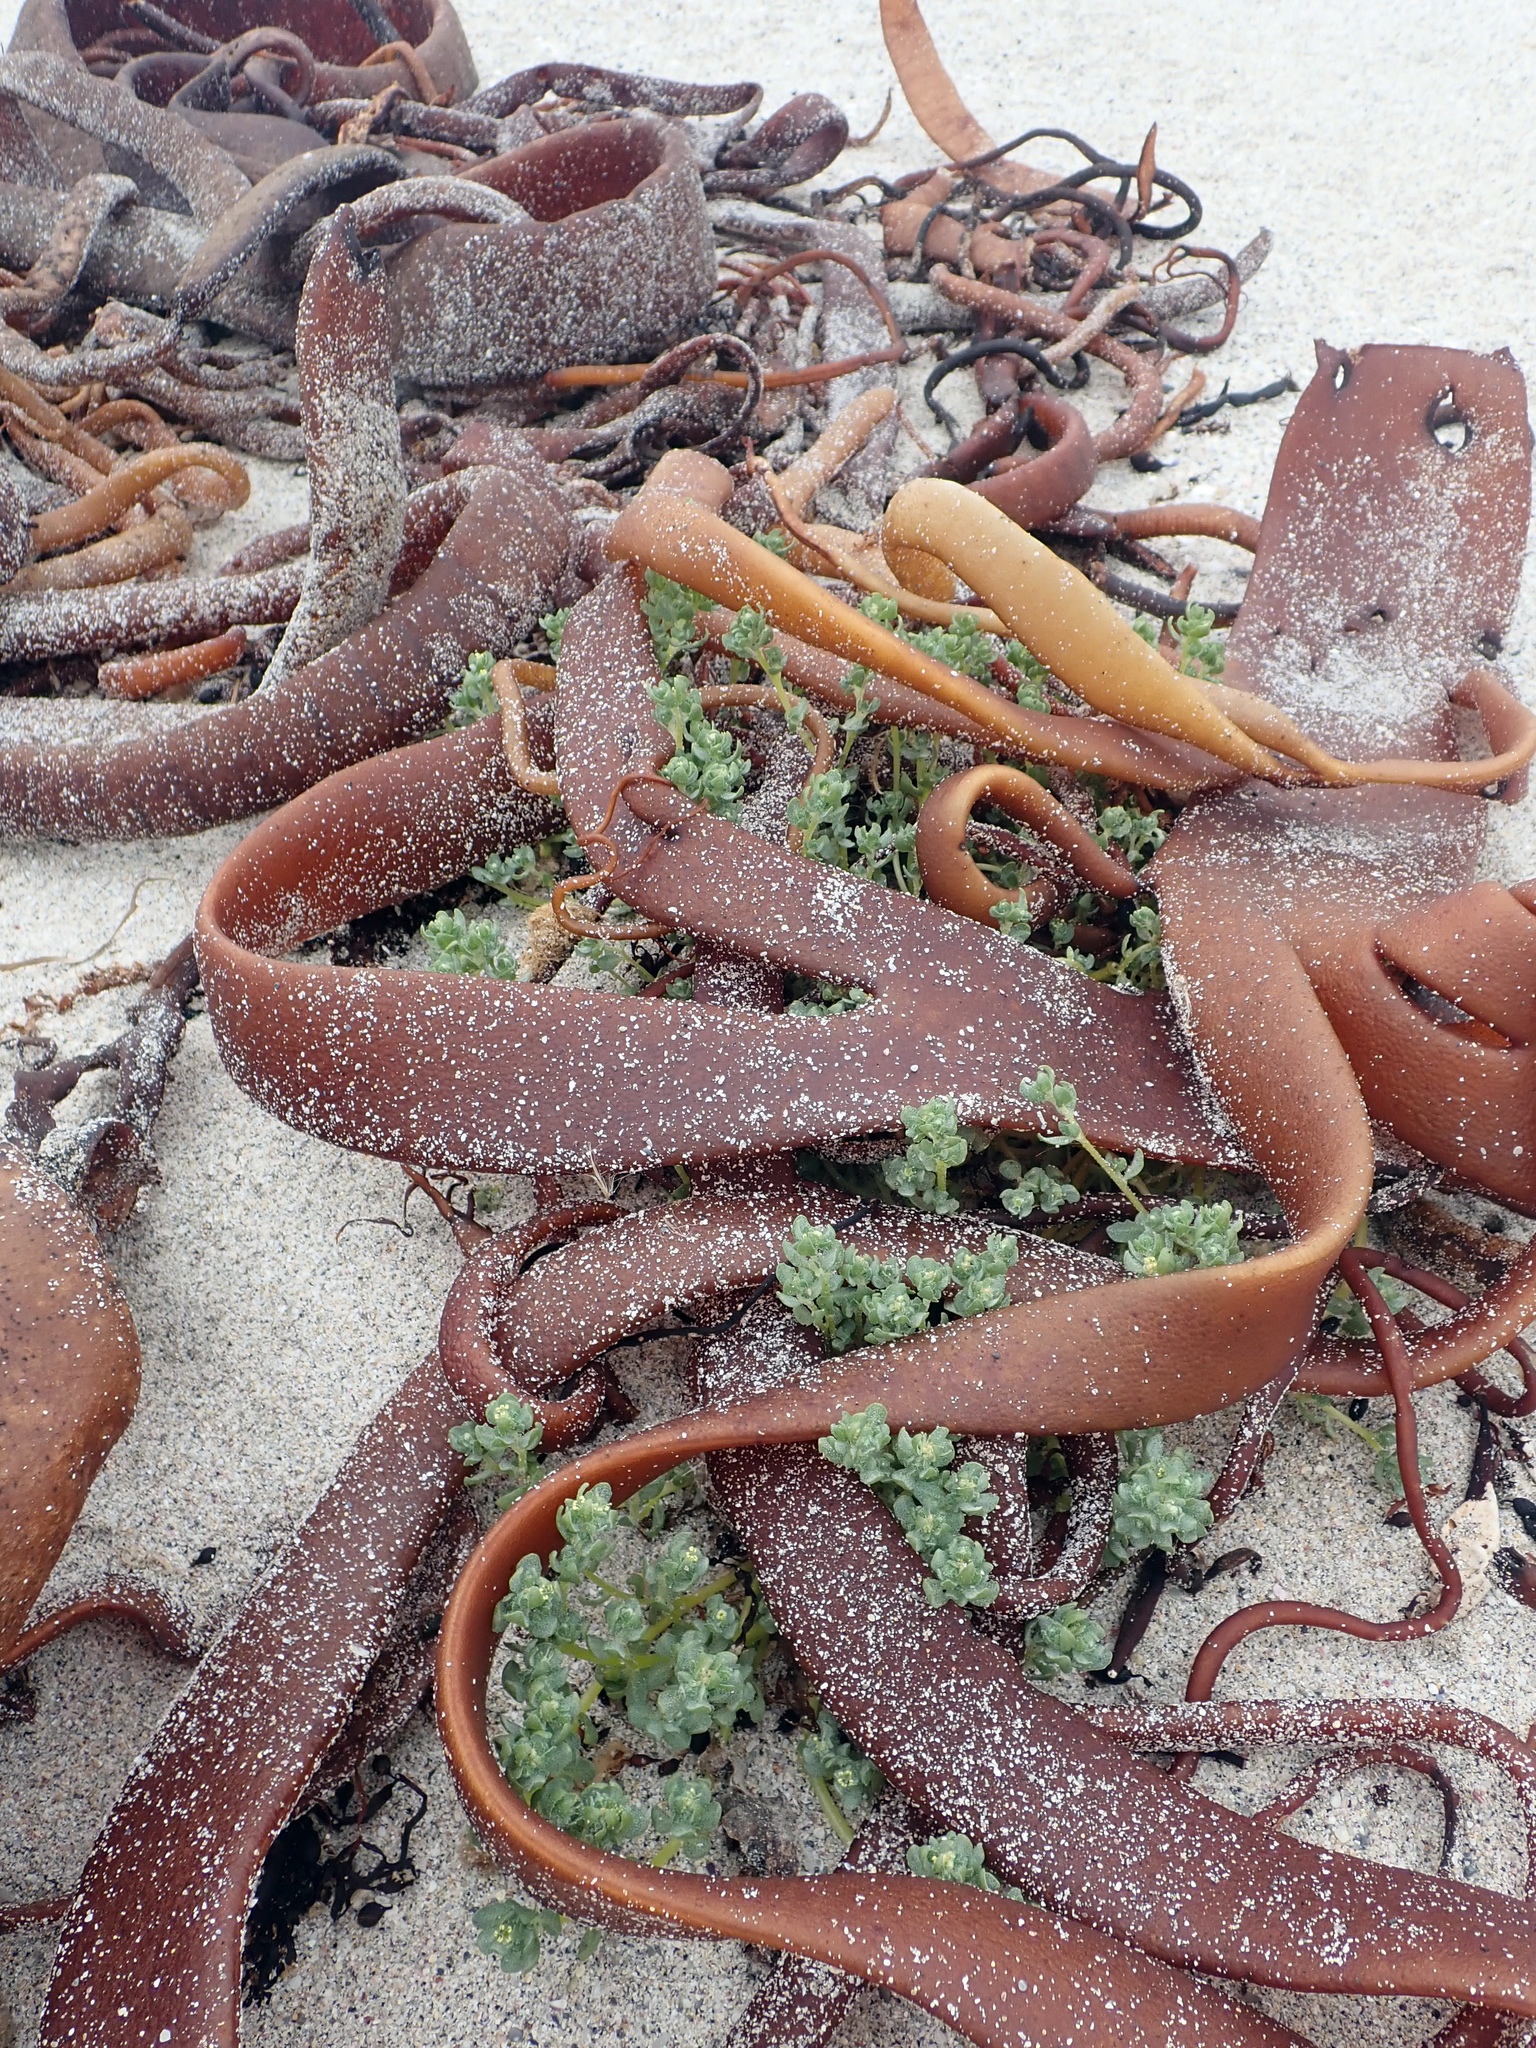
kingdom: Plantae
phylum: Tracheophyta
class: Magnoliopsida
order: Caryophyllales
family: Amaranthaceae
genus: Atriplex
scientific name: Atriplex billardierei
